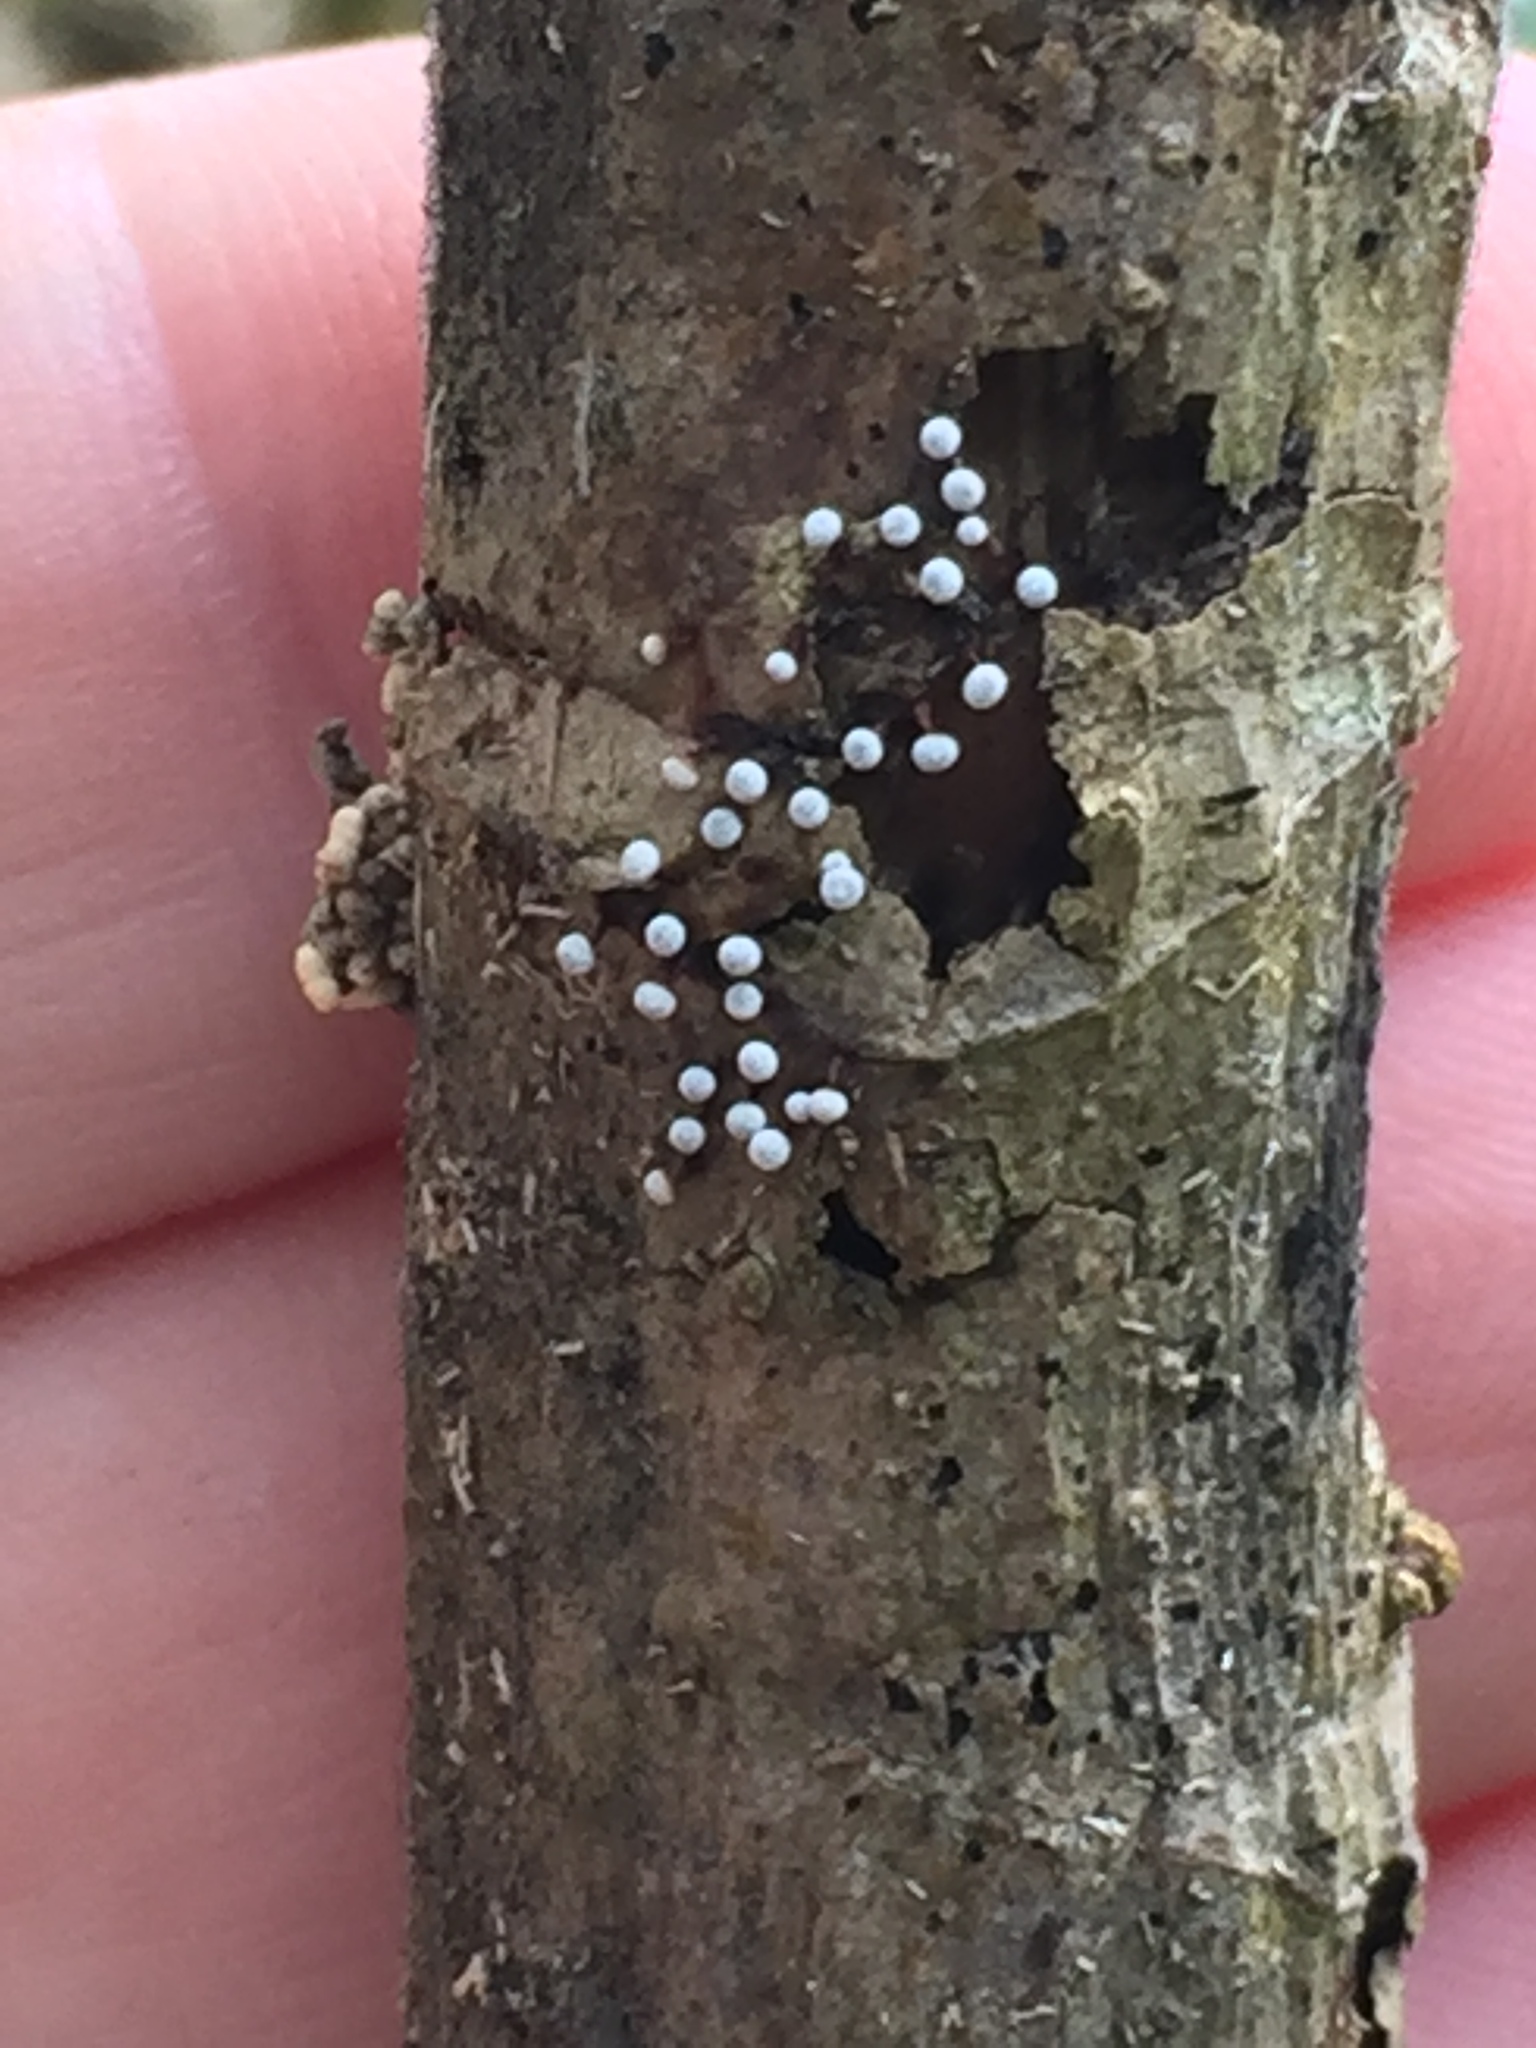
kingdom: Protozoa
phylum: Mycetozoa
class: Myxomycetes
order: Physarales
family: Physaraceae
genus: Physarum
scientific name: Physarum pusillum
